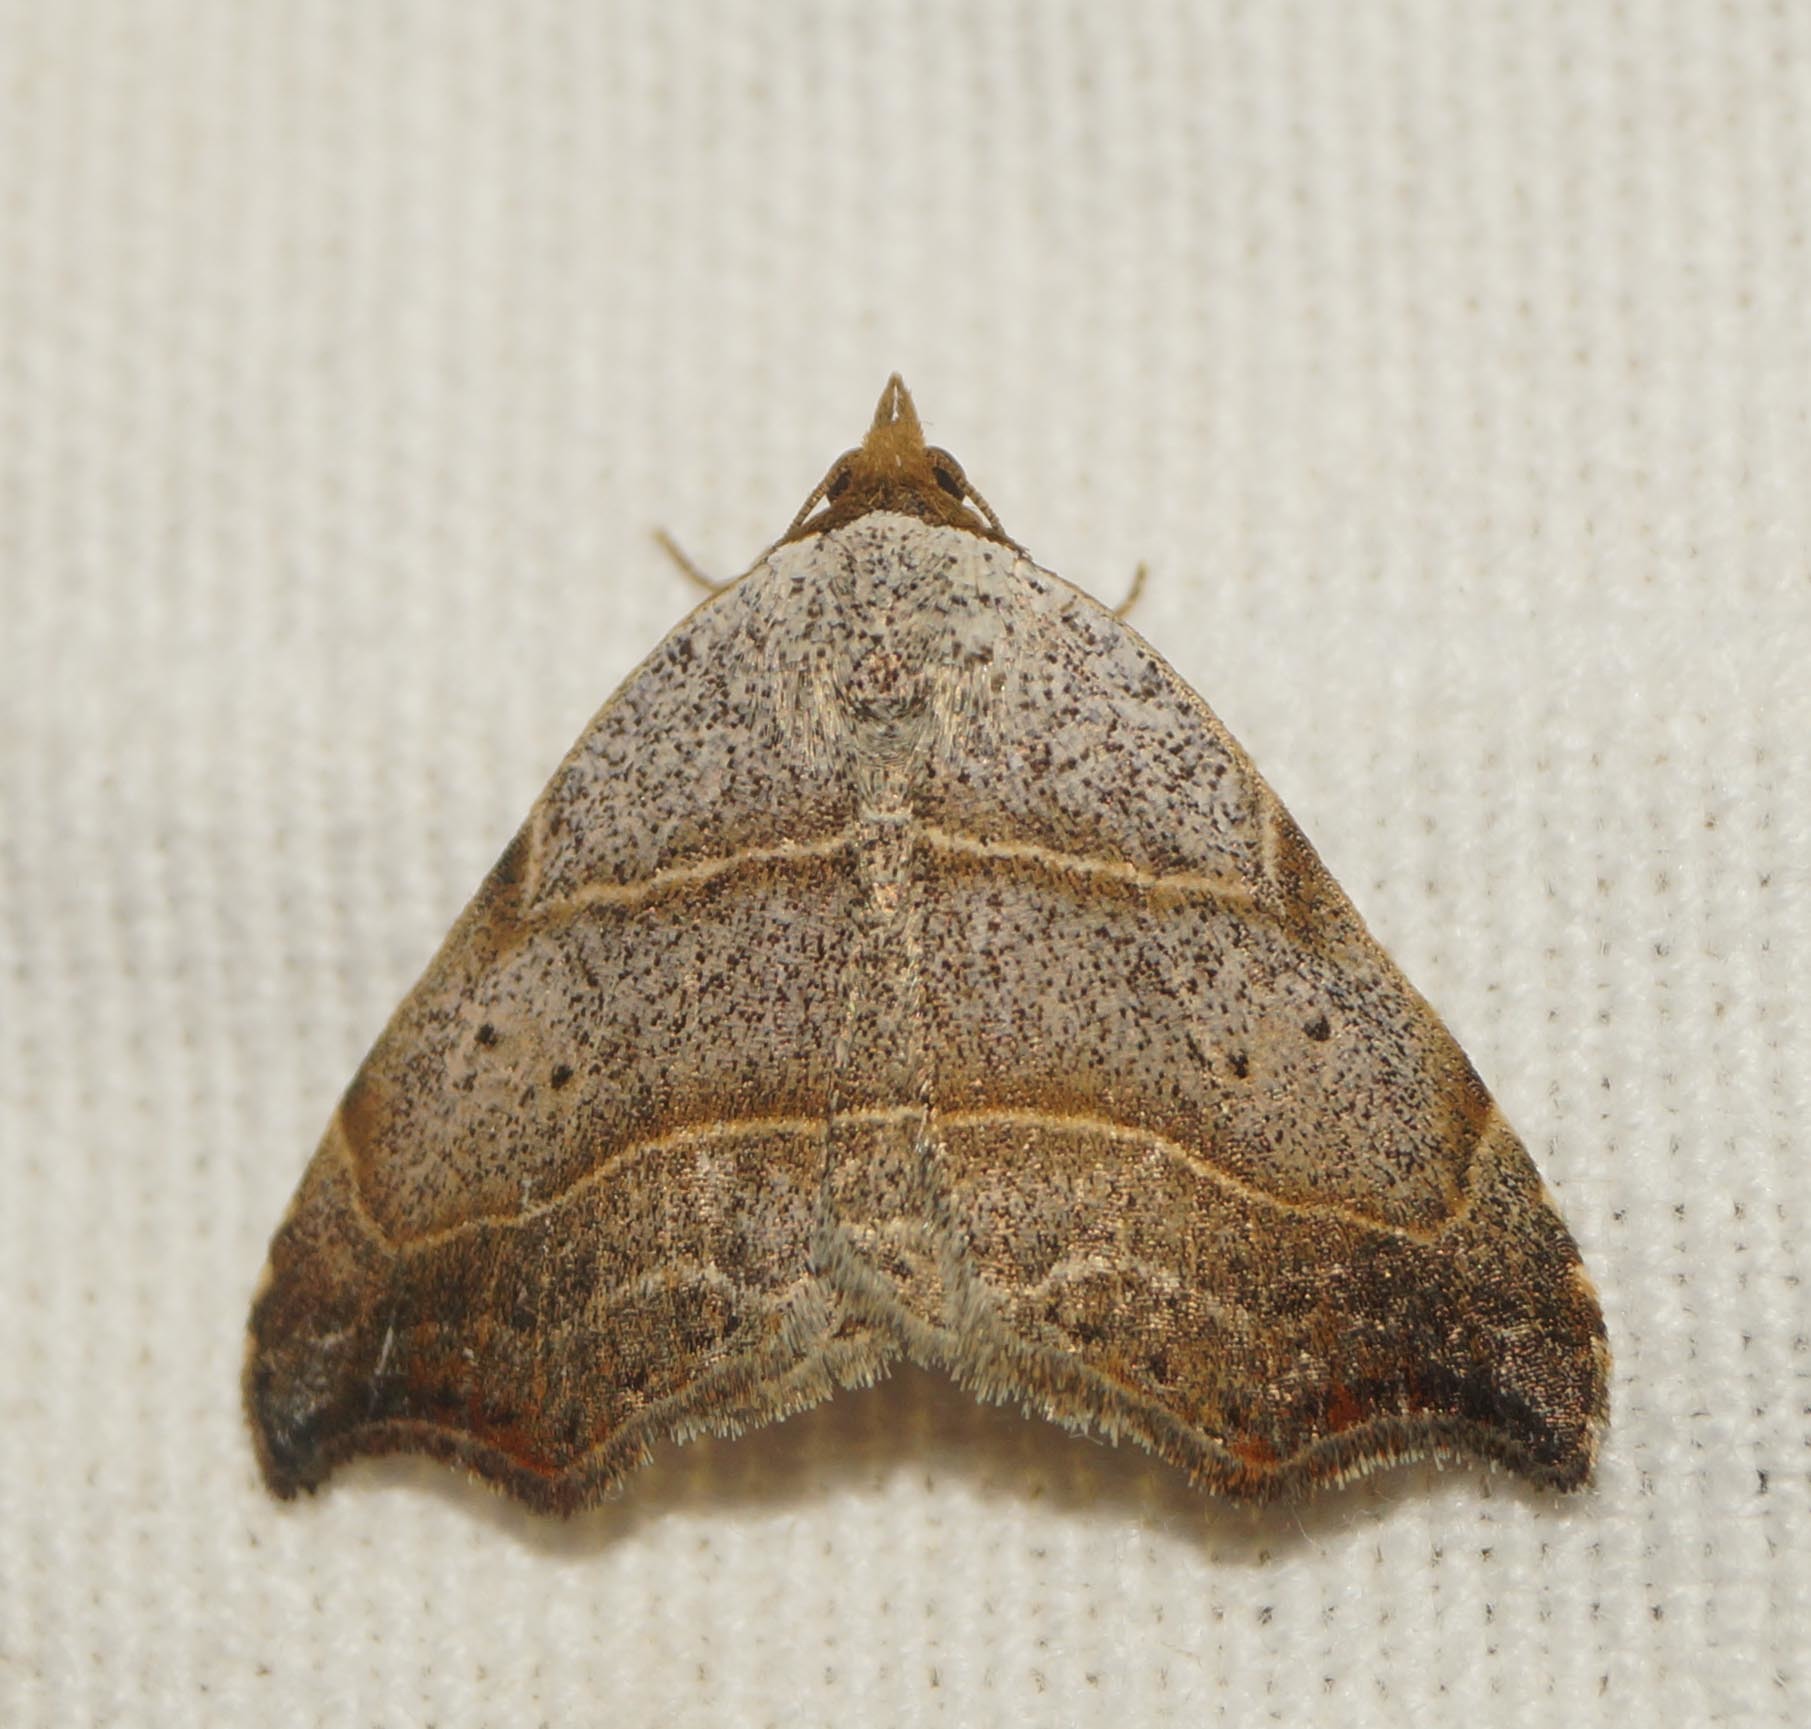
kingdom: Animalia
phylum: Arthropoda
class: Insecta
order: Lepidoptera
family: Erebidae
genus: Laspeyria
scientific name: Laspeyria flexula
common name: Beautiful hook-tip
